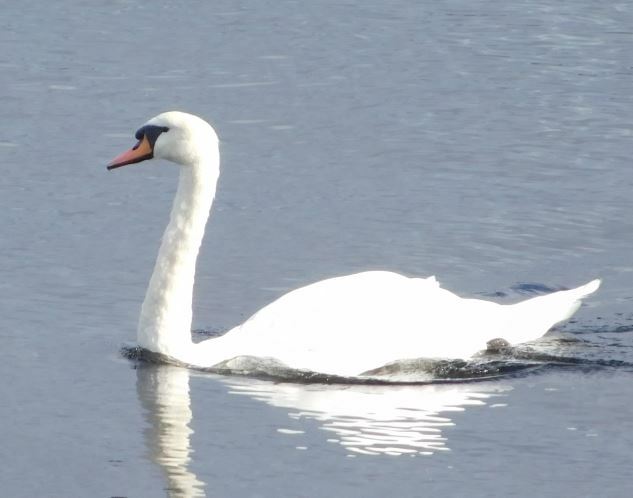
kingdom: Animalia
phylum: Chordata
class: Aves
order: Anseriformes
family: Anatidae
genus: Cygnus
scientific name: Cygnus olor
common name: Mute swan
